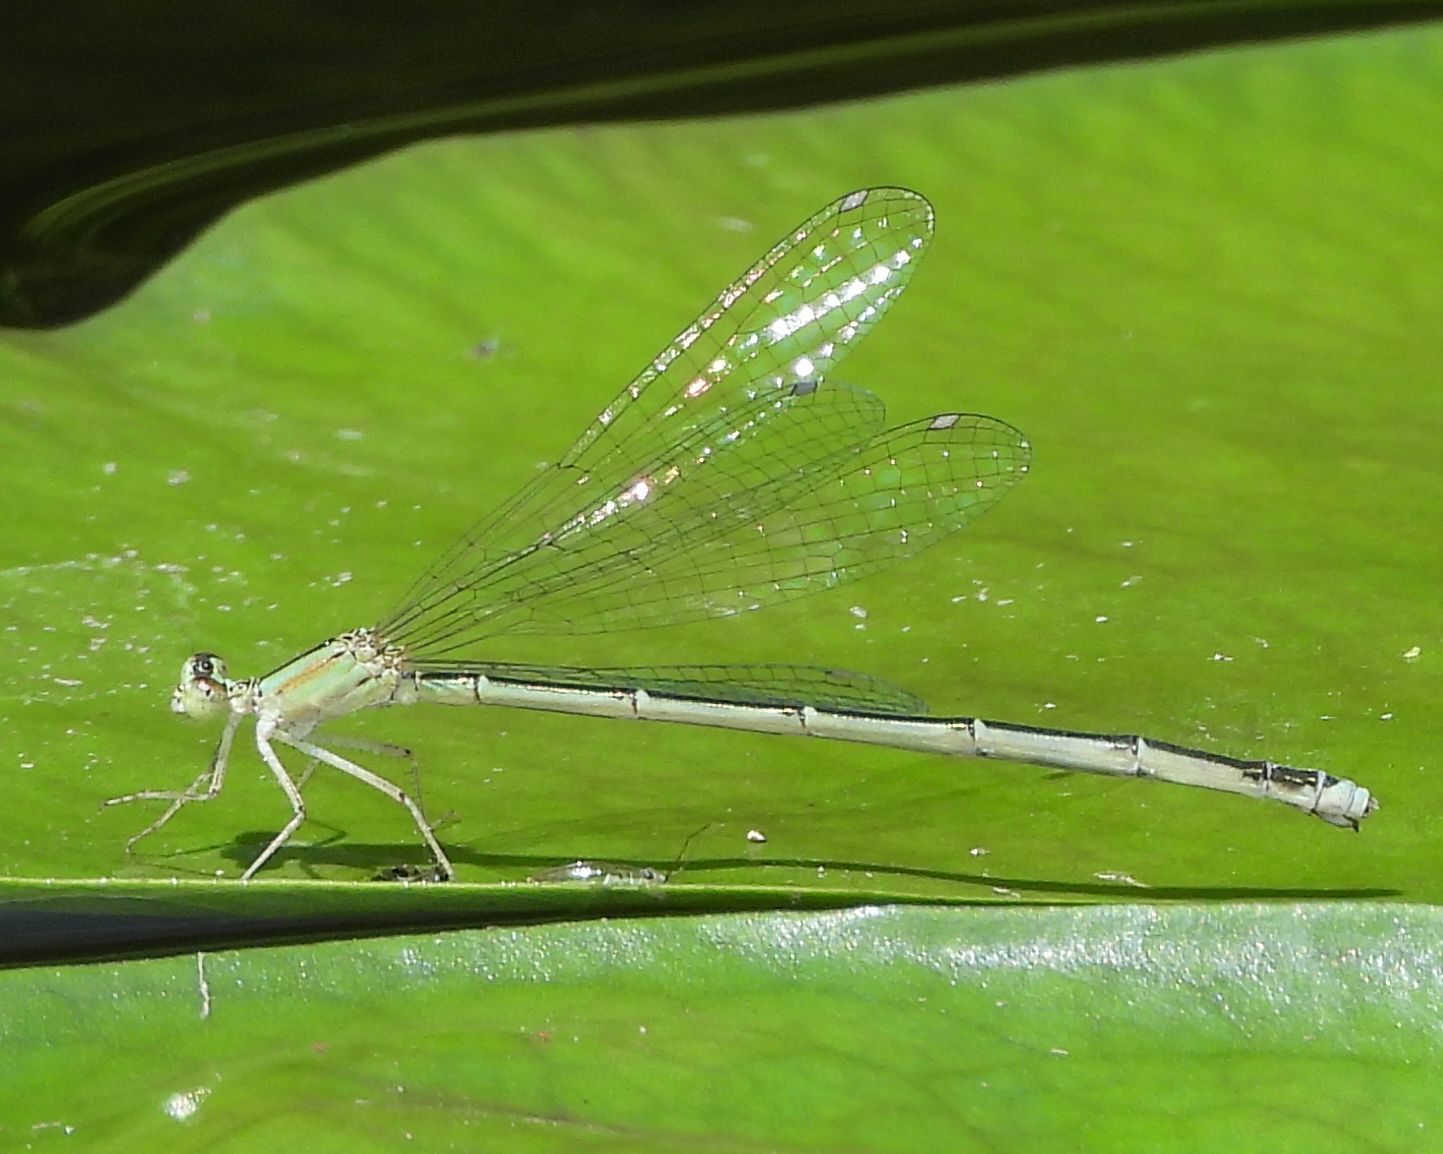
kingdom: Animalia
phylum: Arthropoda
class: Insecta
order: Odonata
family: Coenagrionidae
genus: Enallagma
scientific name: Enallagma vesperum
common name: Vesper bluet
